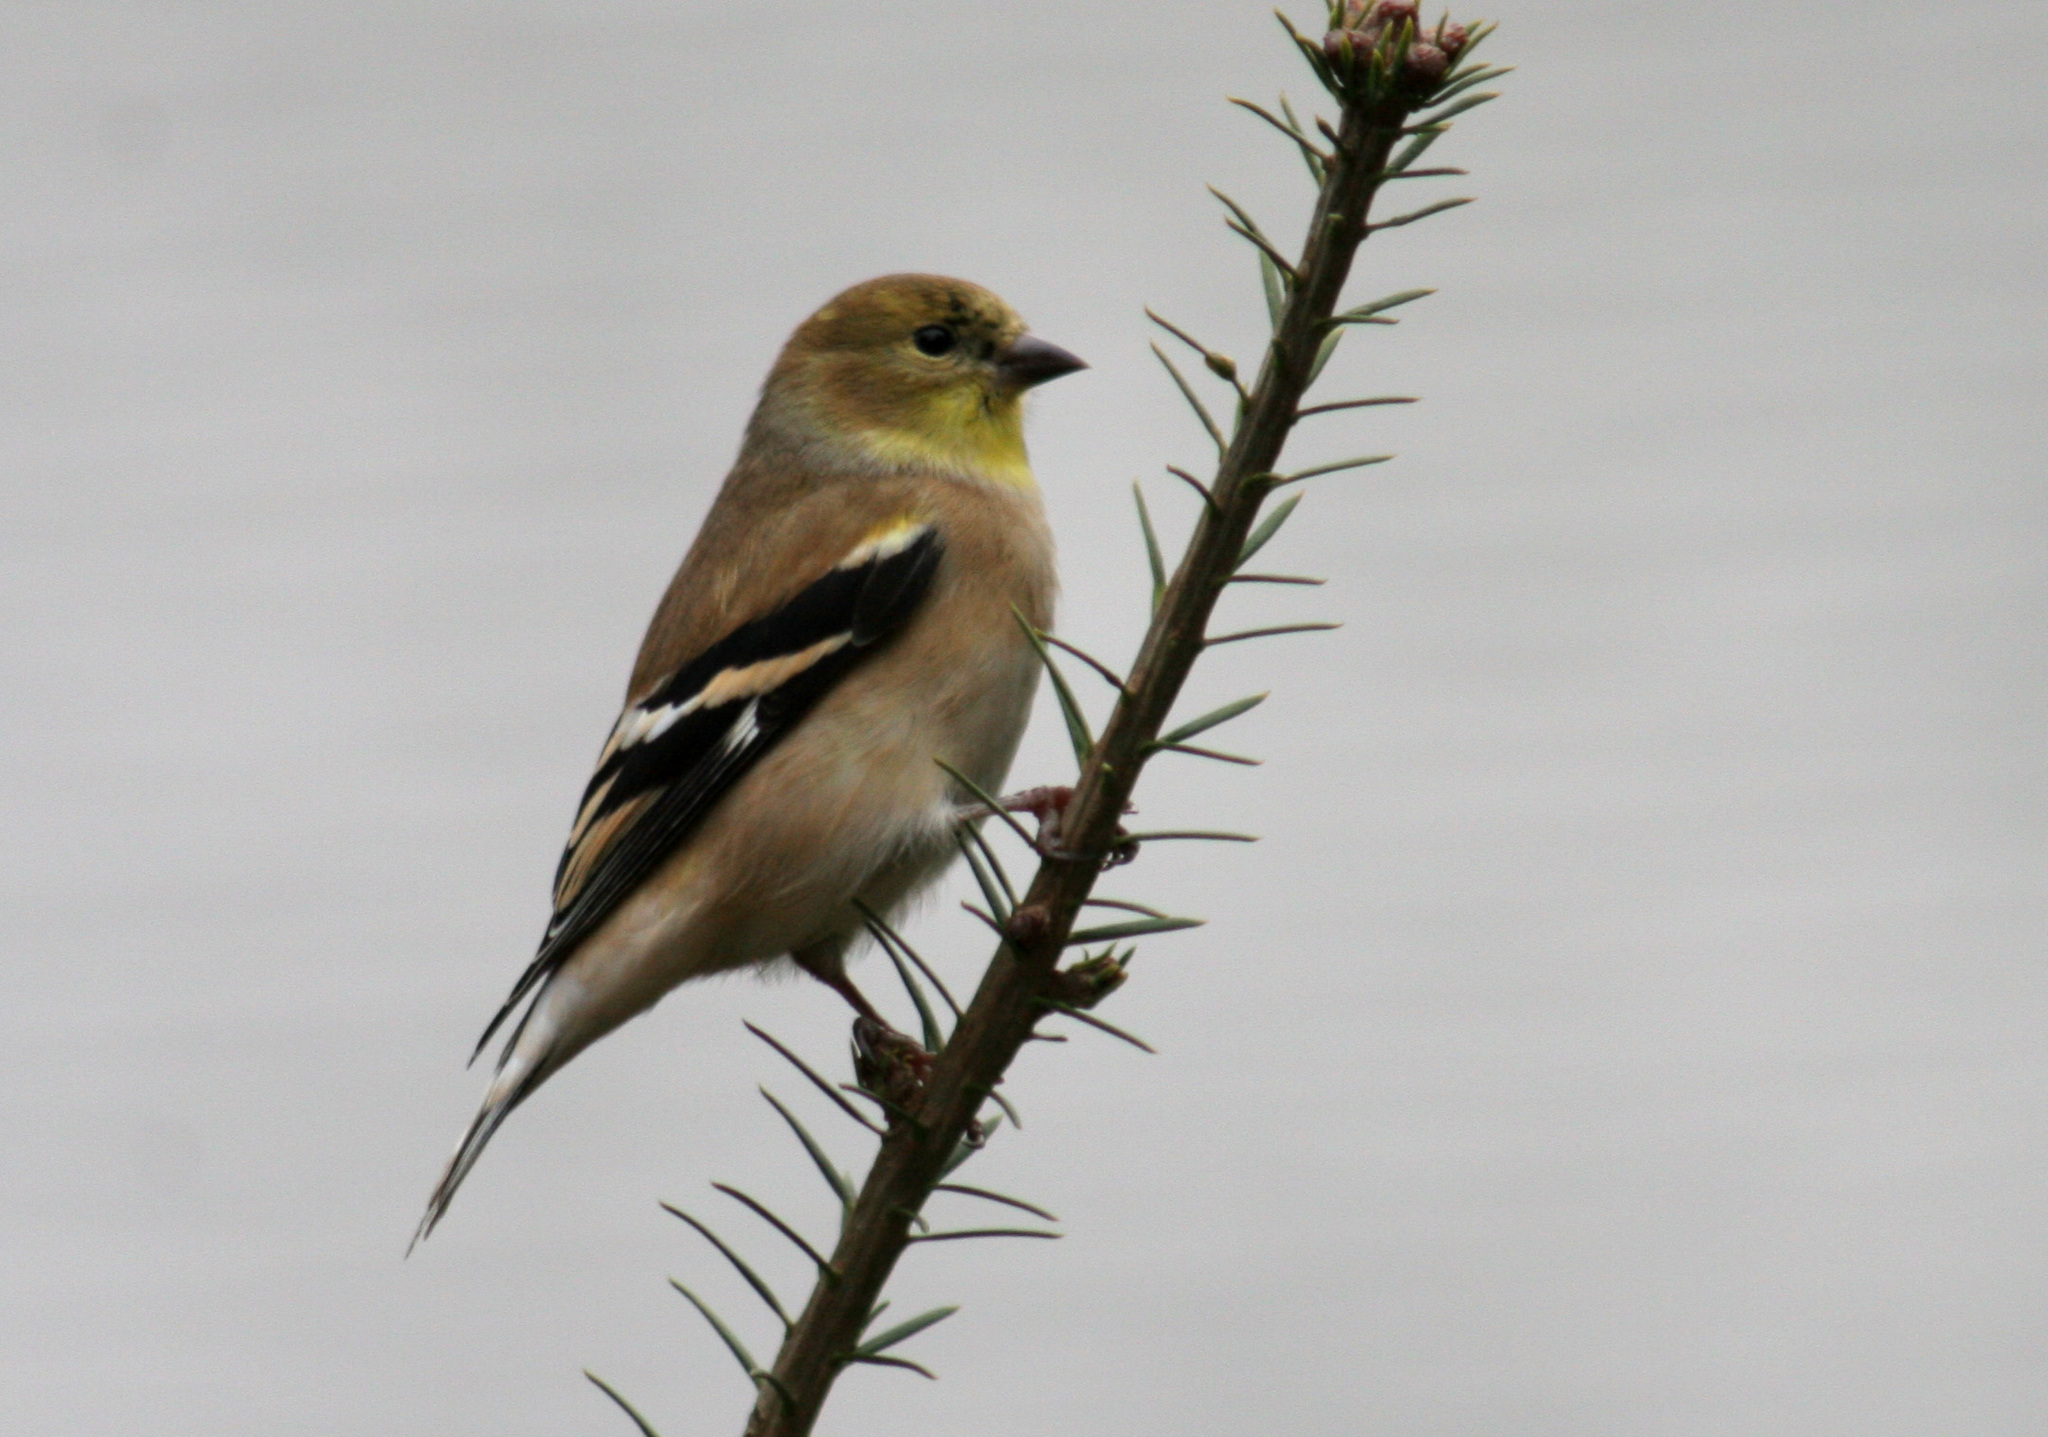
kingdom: Animalia
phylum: Chordata
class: Aves
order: Passeriformes
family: Fringillidae
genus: Spinus
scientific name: Spinus tristis
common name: American goldfinch
